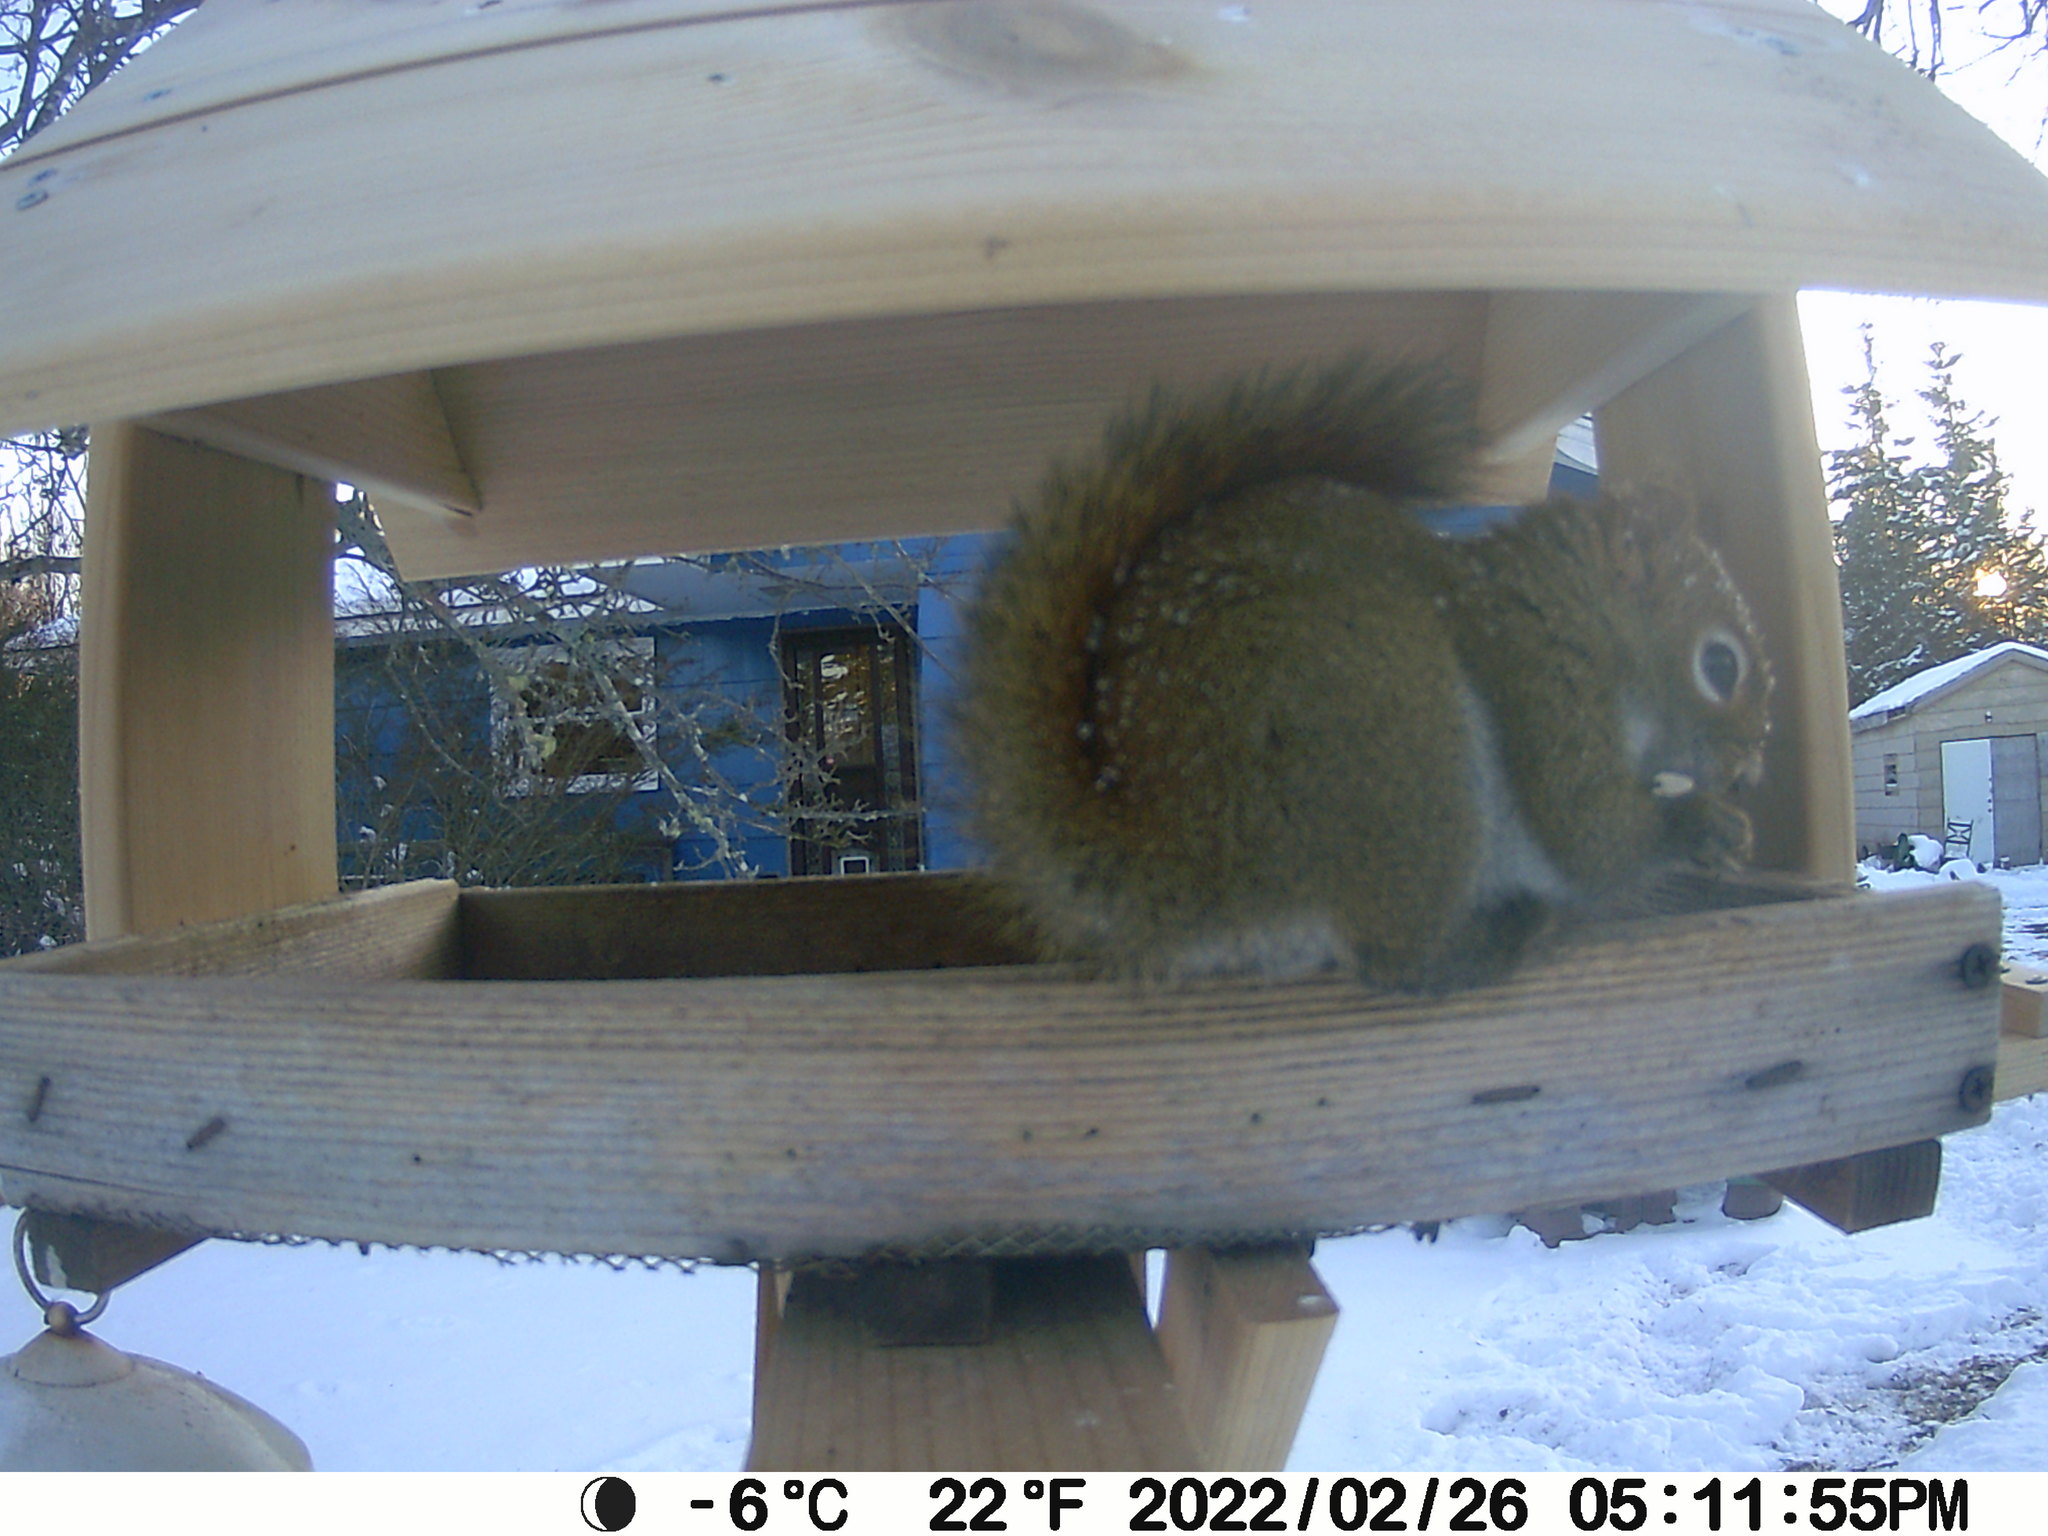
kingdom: Animalia
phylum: Chordata
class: Mammalia
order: Rodentia
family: Sciuridae
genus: Tamiasciurus
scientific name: Tamiasciurus hudsonicus
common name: Red squirrel
